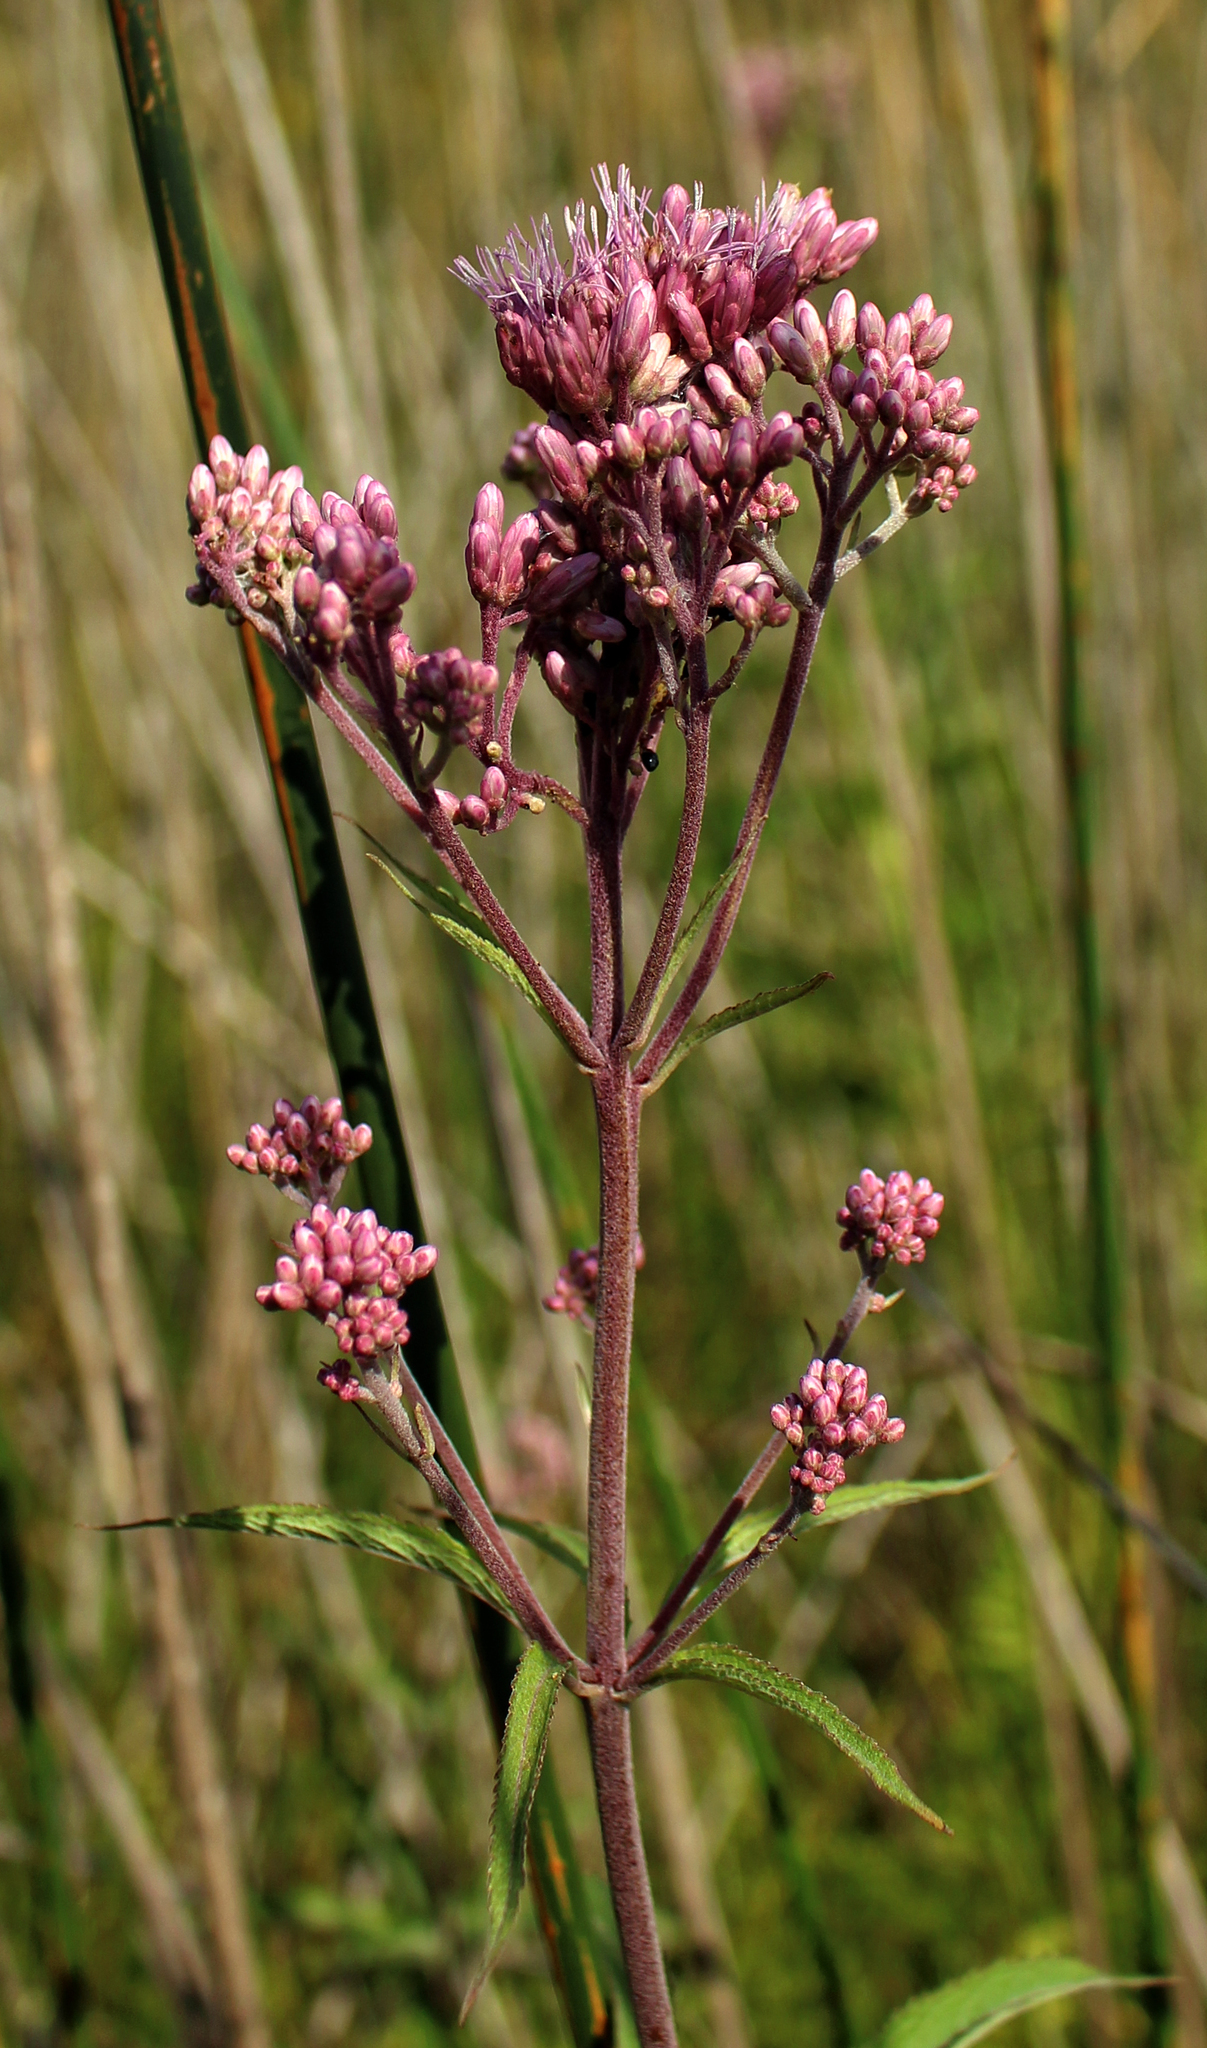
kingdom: Plantae
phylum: Tracheophyta
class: Magnoliopsida
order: Asterales
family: Asteraceae
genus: Eutrochium
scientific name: Eutrochium maculatum
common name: Spotted joe pye weed
